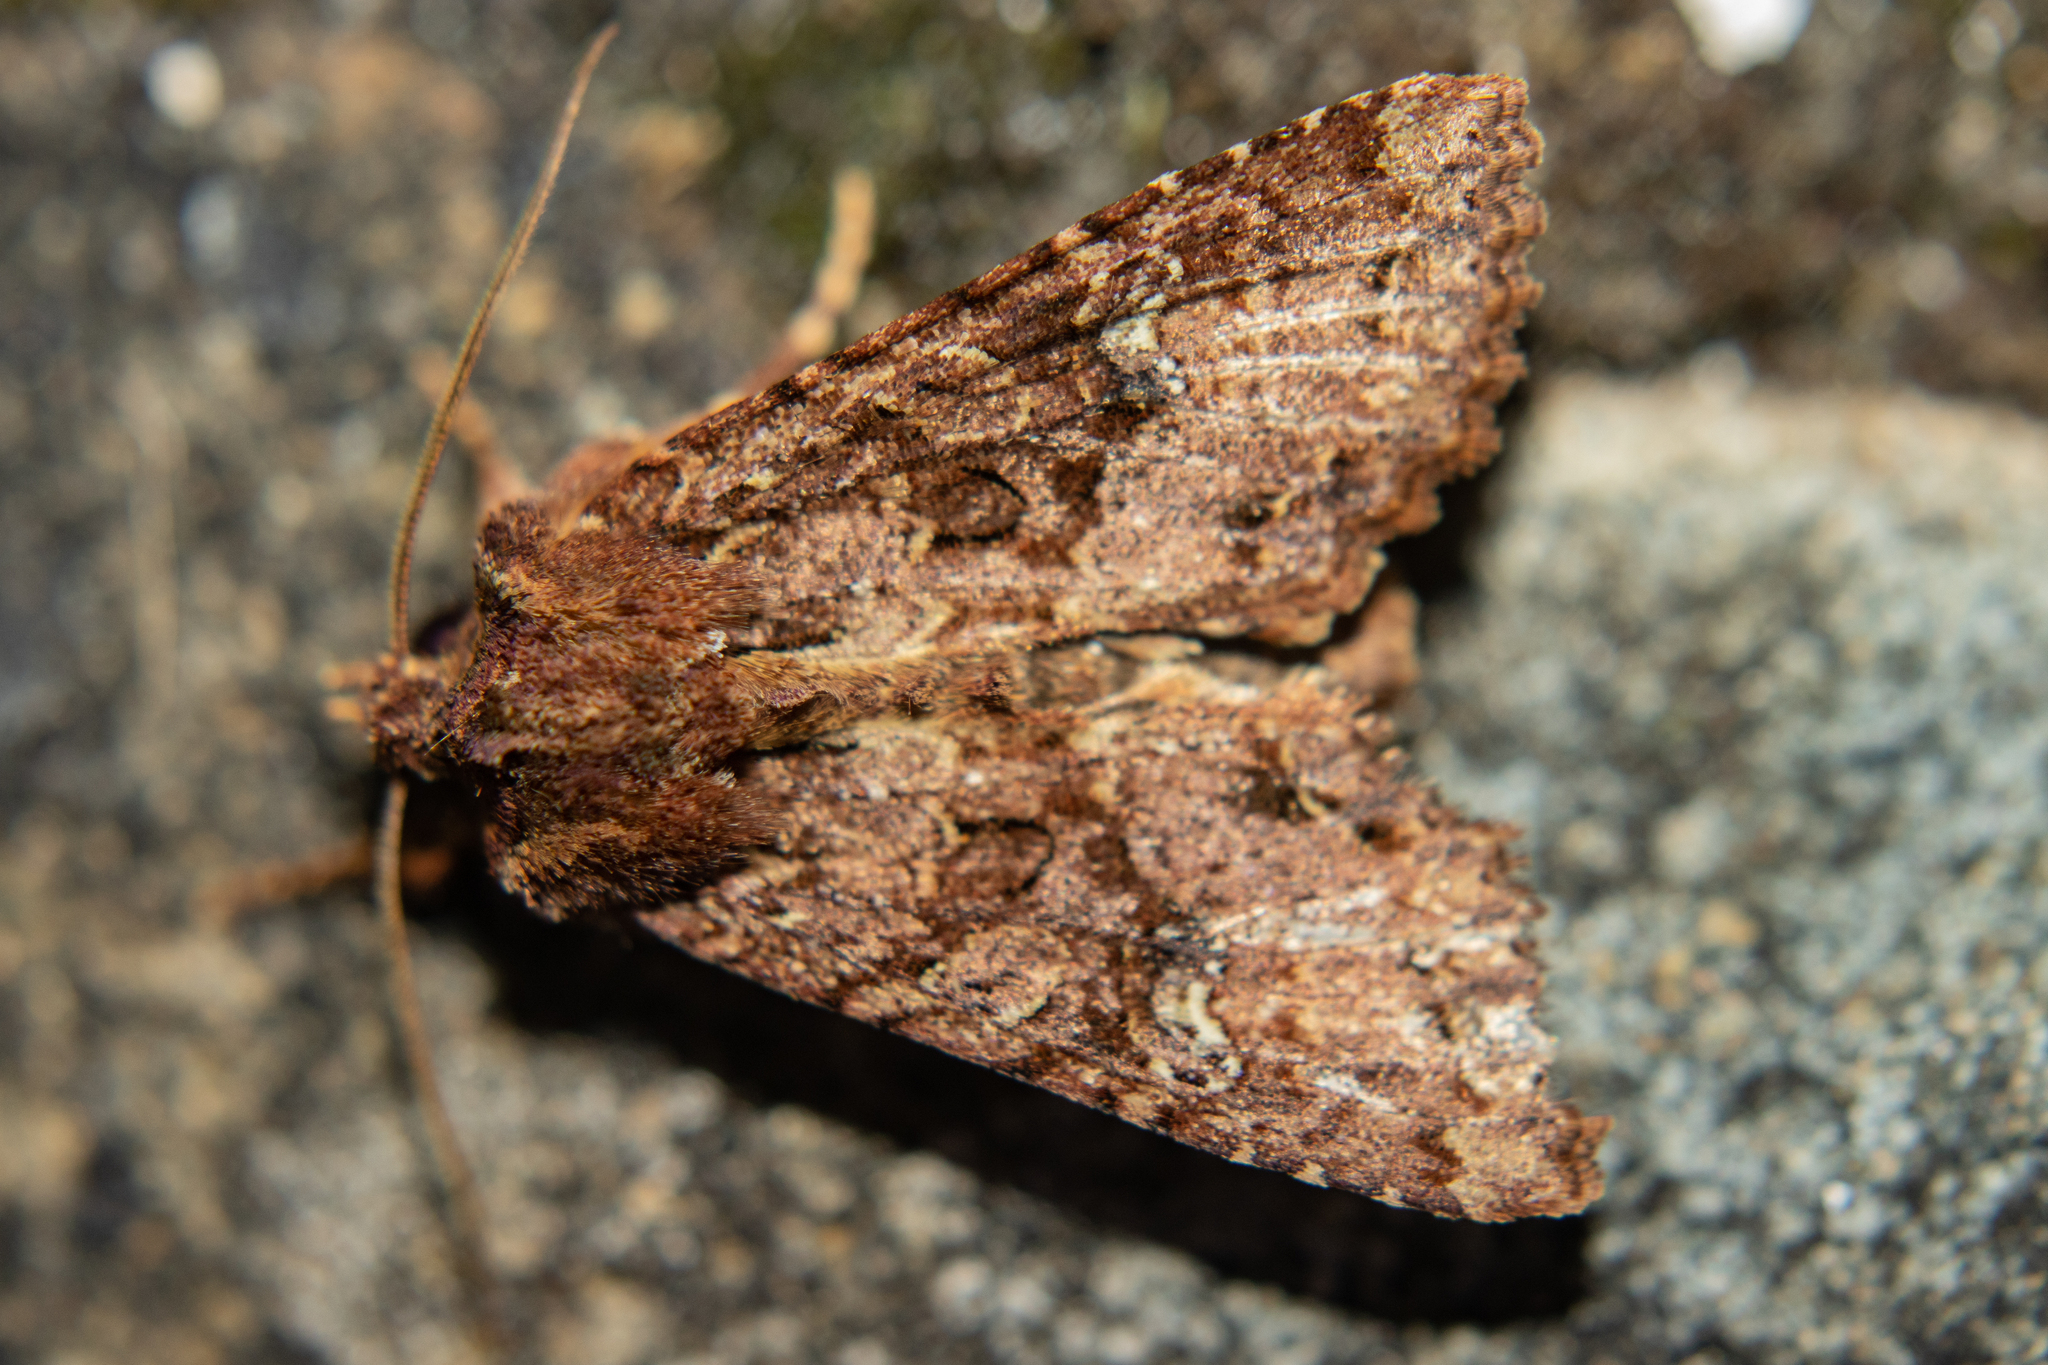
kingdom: Animalia
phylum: Arthropoda
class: Insecta
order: Lepidoptera
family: Noctuidae
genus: Meterana
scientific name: Meterana
